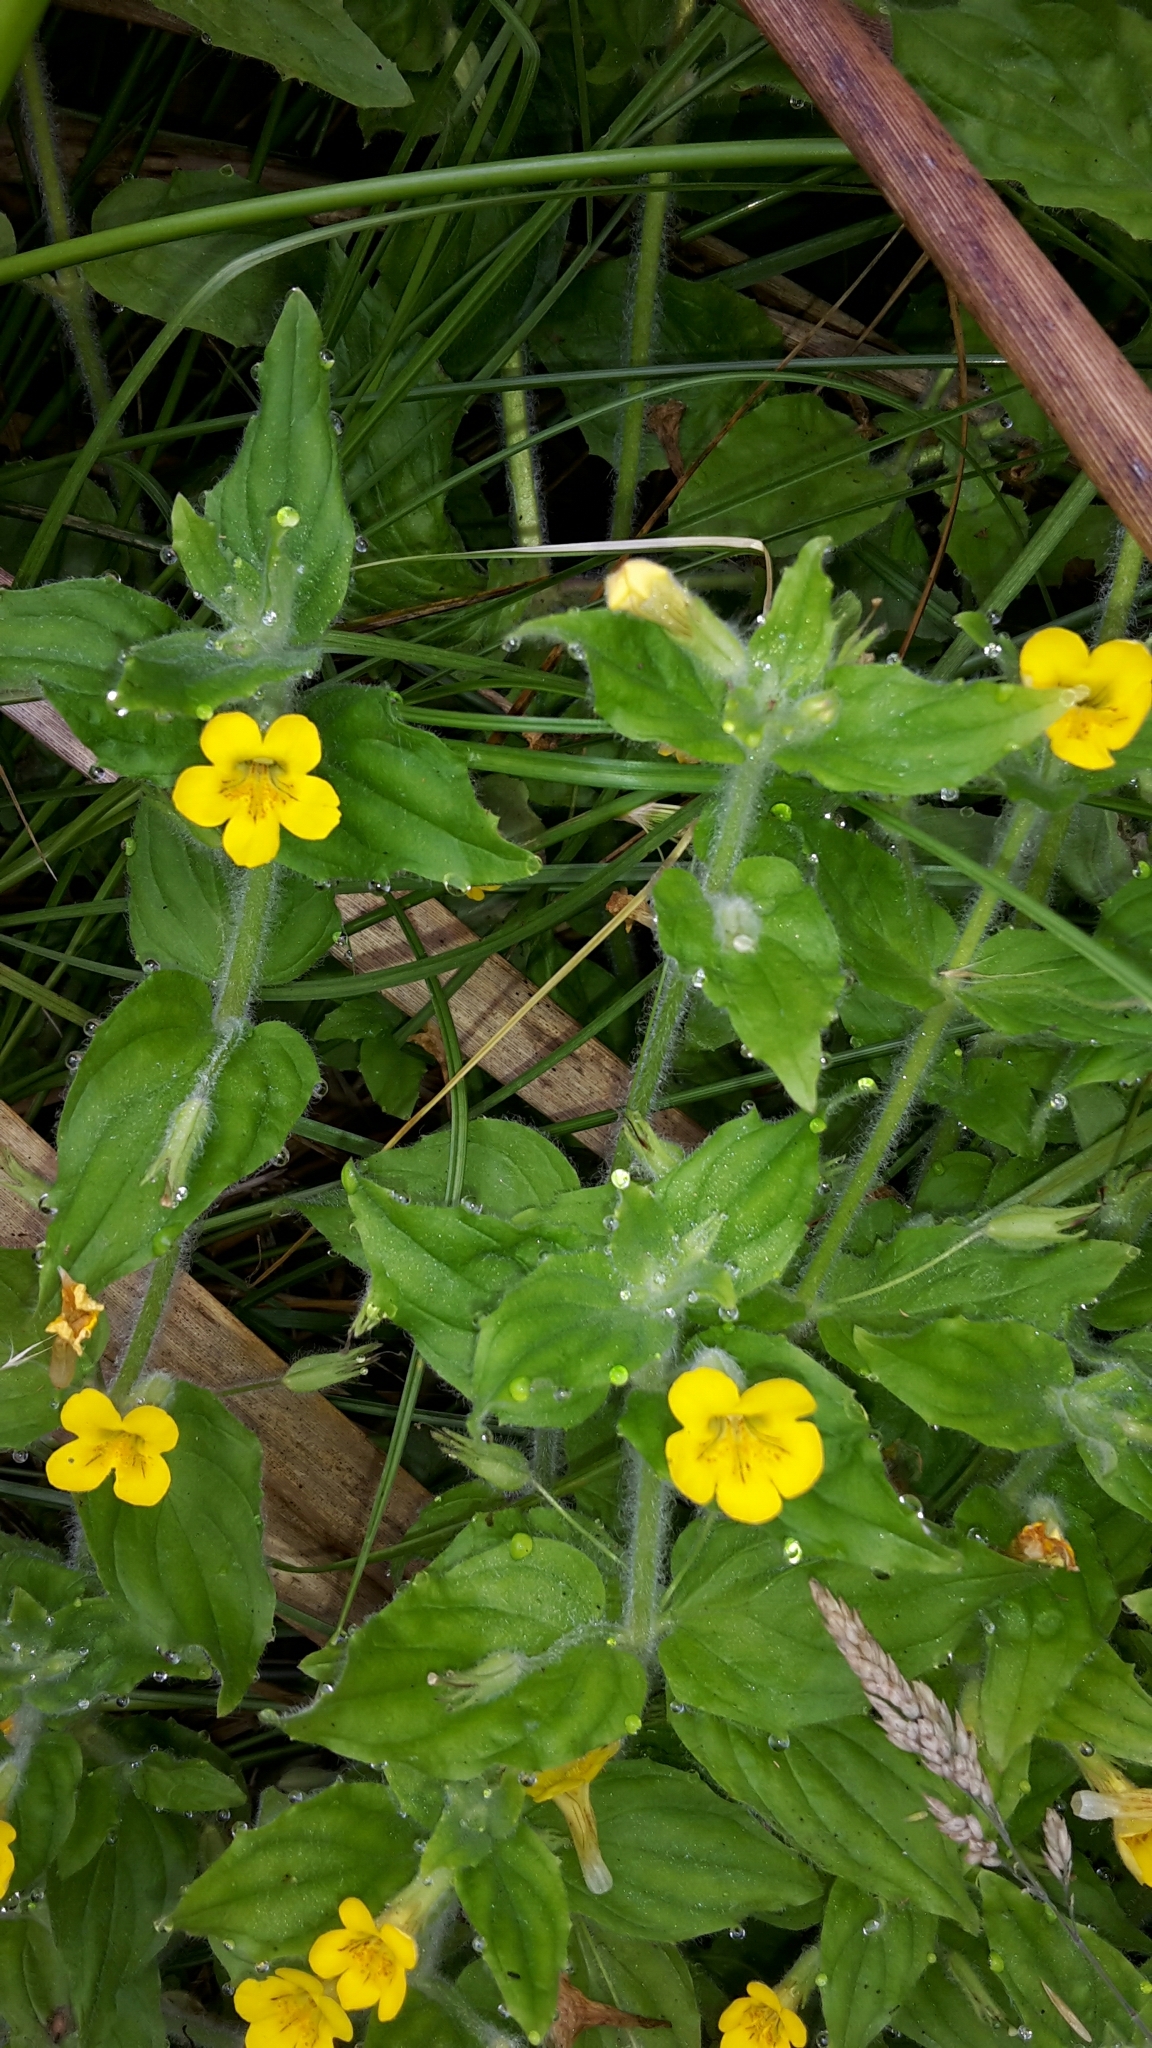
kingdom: Plantae
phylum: Tracheophyta
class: Magnoliopsida
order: Lamiales
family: Phrymaceae
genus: Erythranthe
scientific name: Erythranthe moschata
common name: Muskflower
